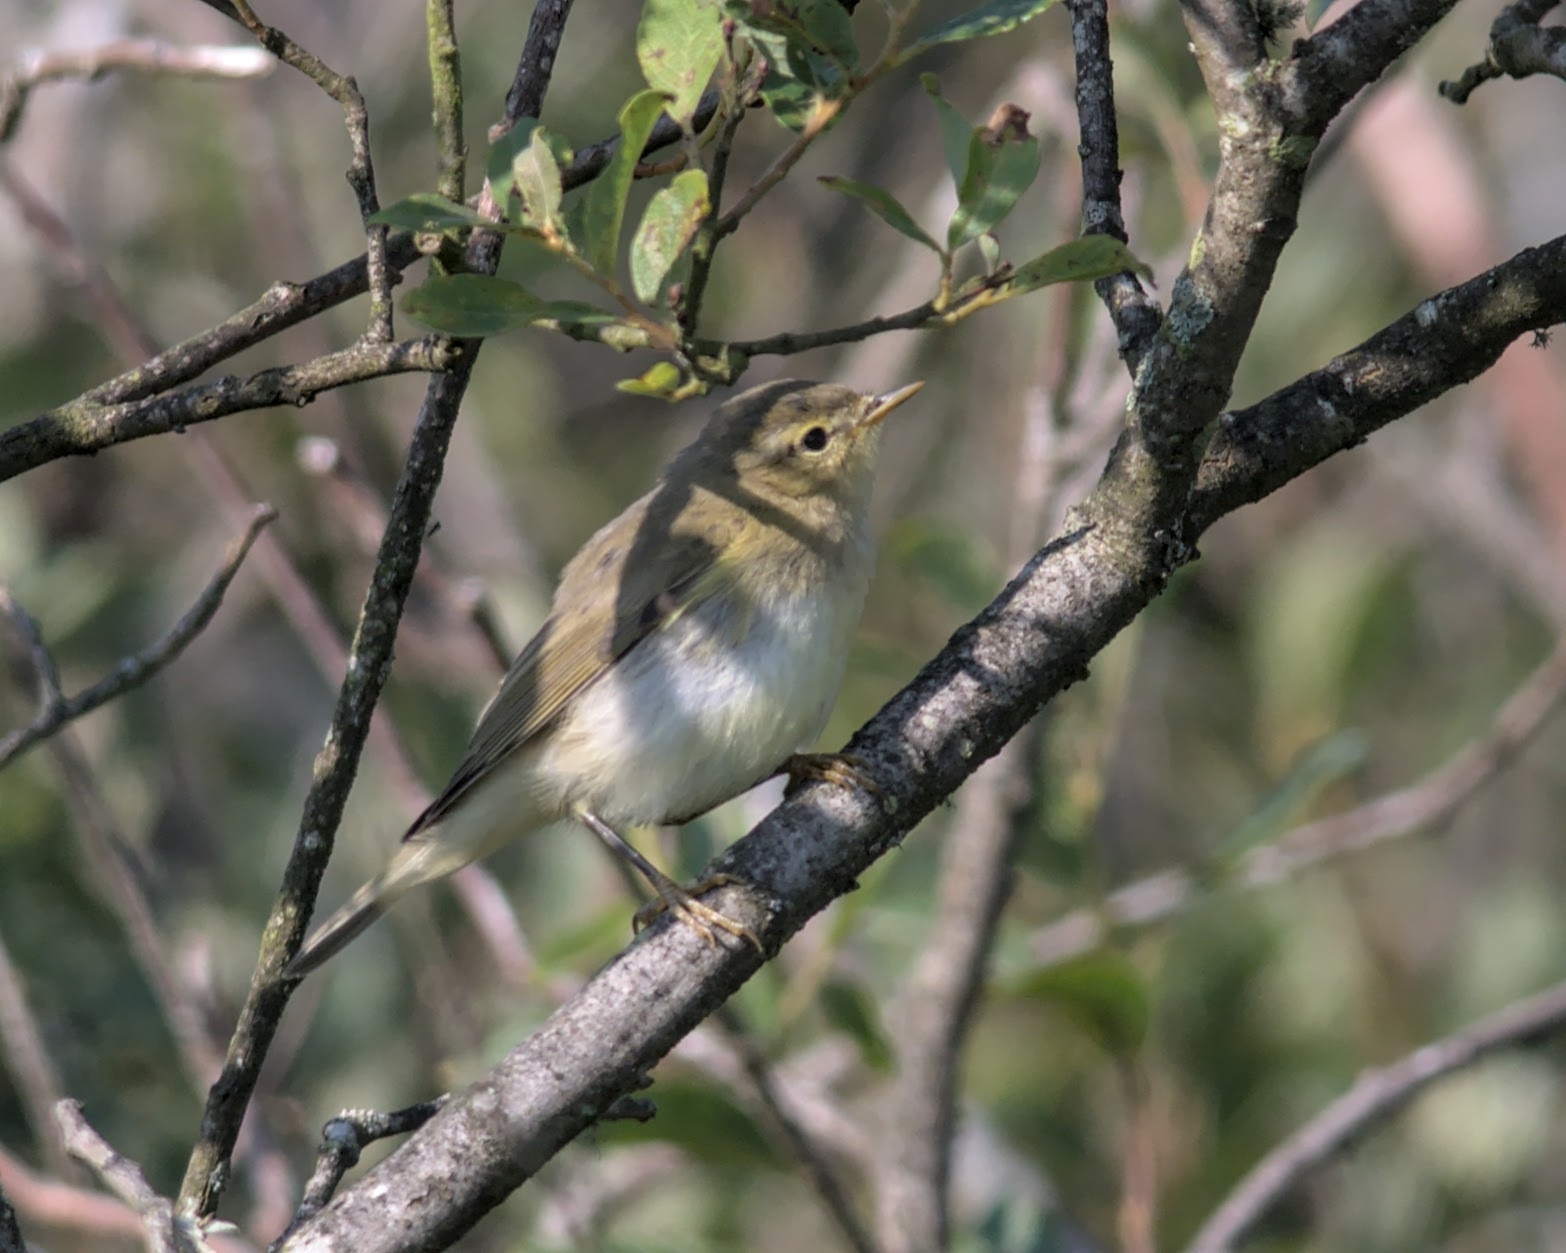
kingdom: Animalia
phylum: Chordata
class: Aves
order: Passeriformes
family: Phylloscopidae
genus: Phylloscopus
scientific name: Phylloscopus trochilus
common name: Willow warbler
